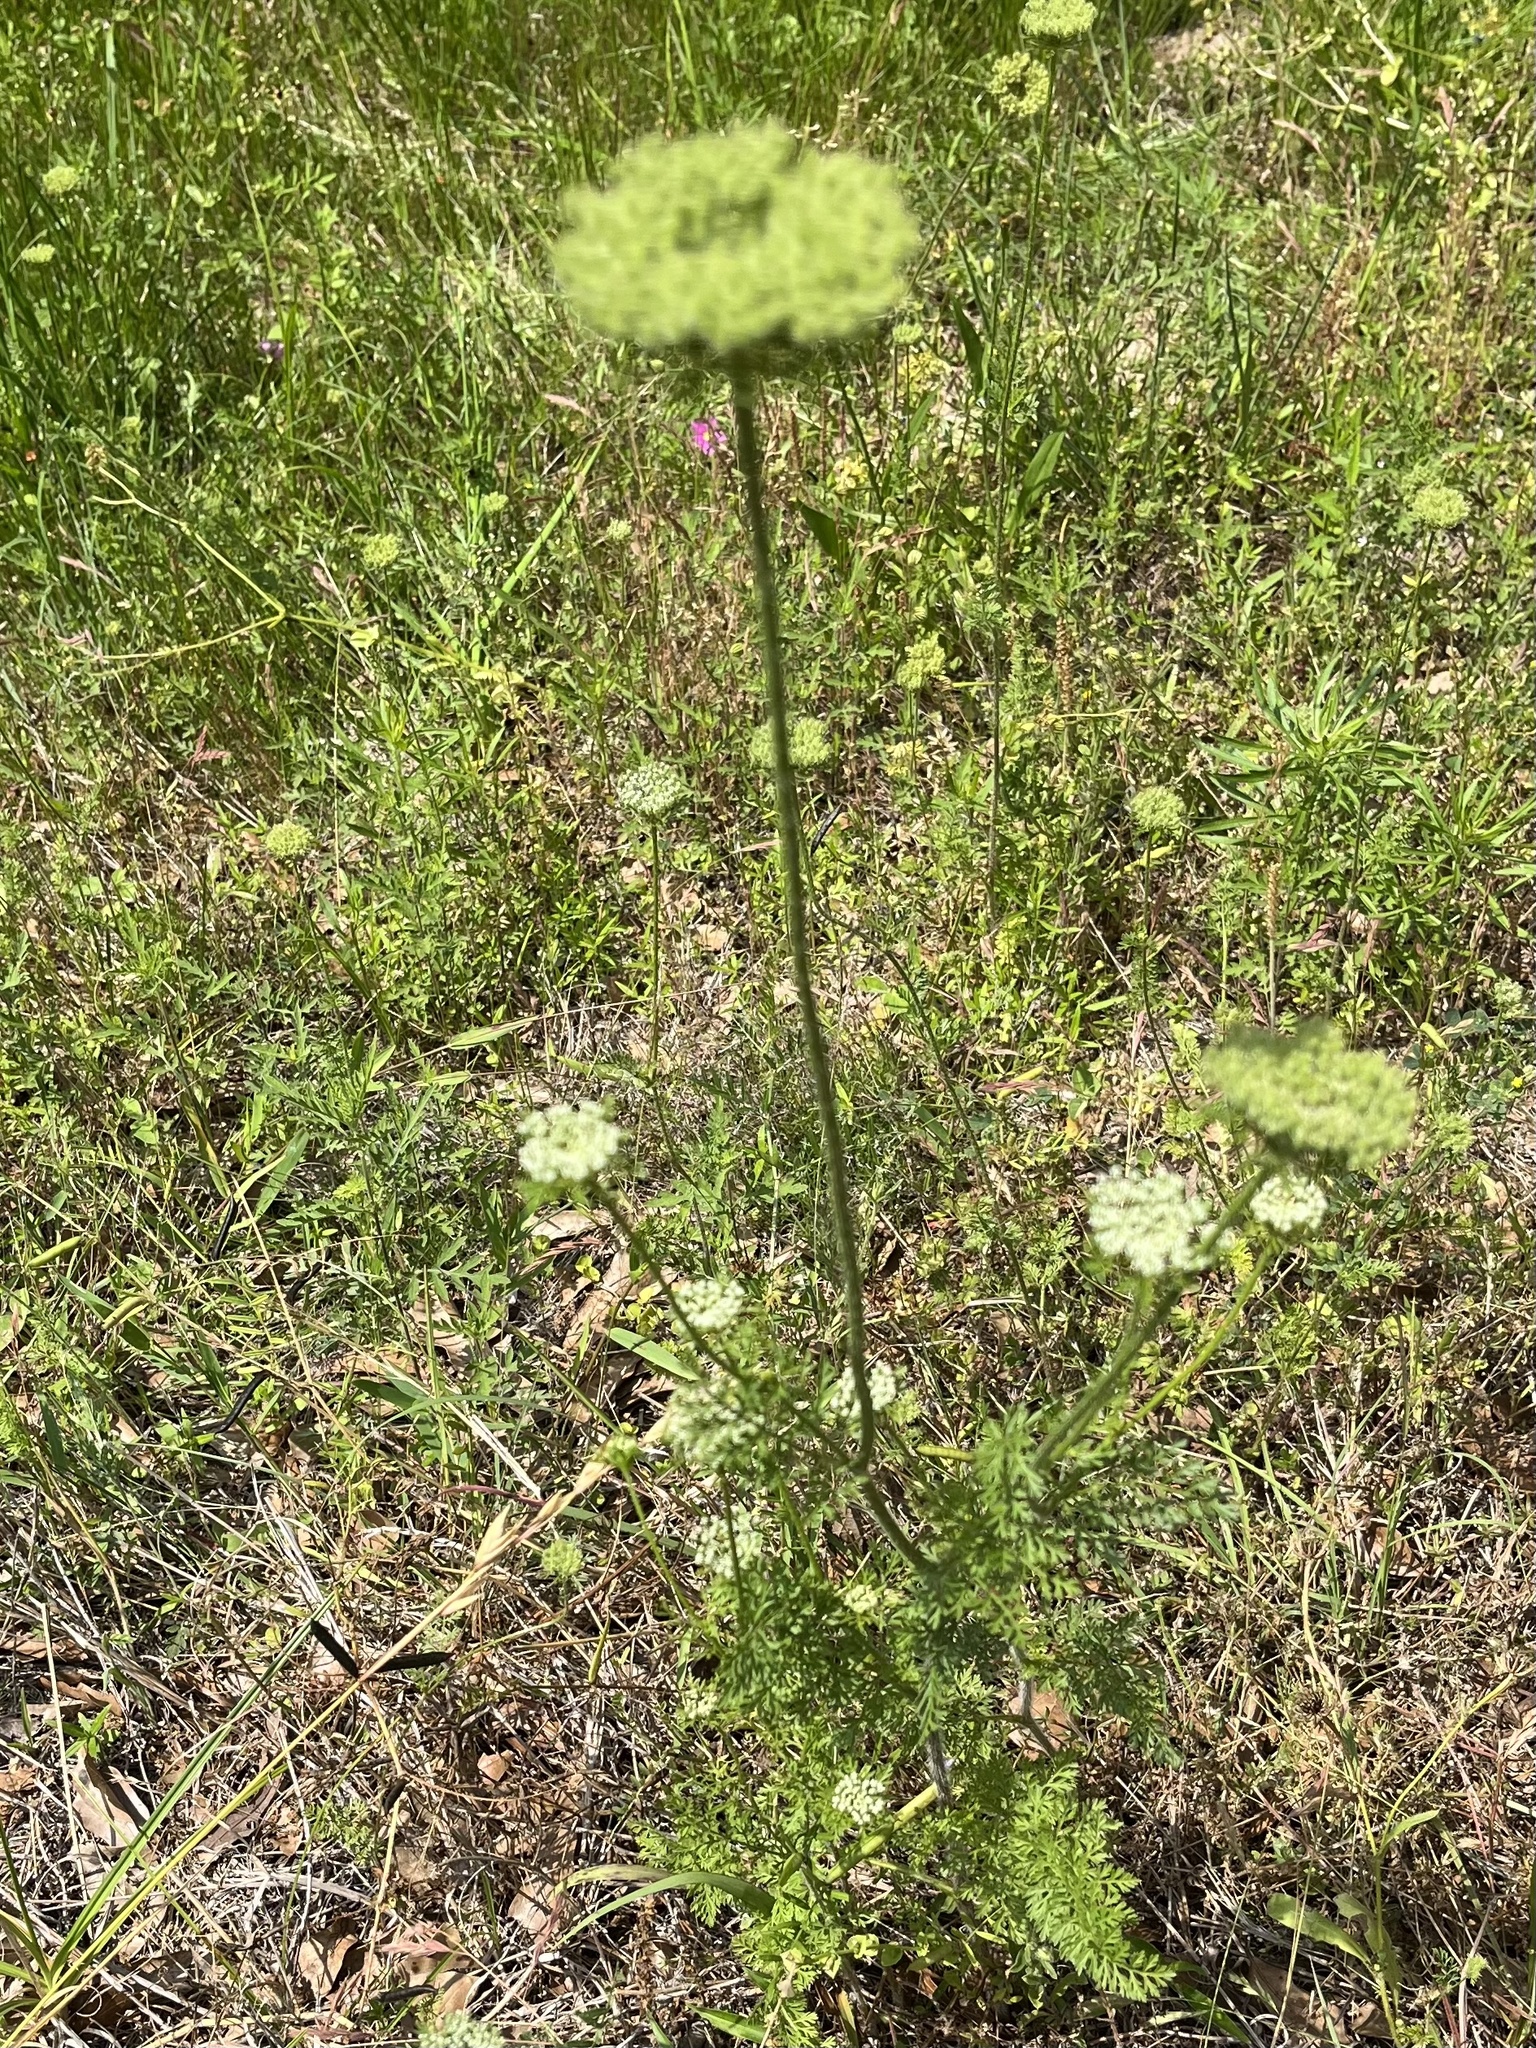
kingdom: Plantae
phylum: Tracheophyta
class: Magnoliopsida
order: Apiales
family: Apiaceae
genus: Polytaenia
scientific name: Polytaenia texana
